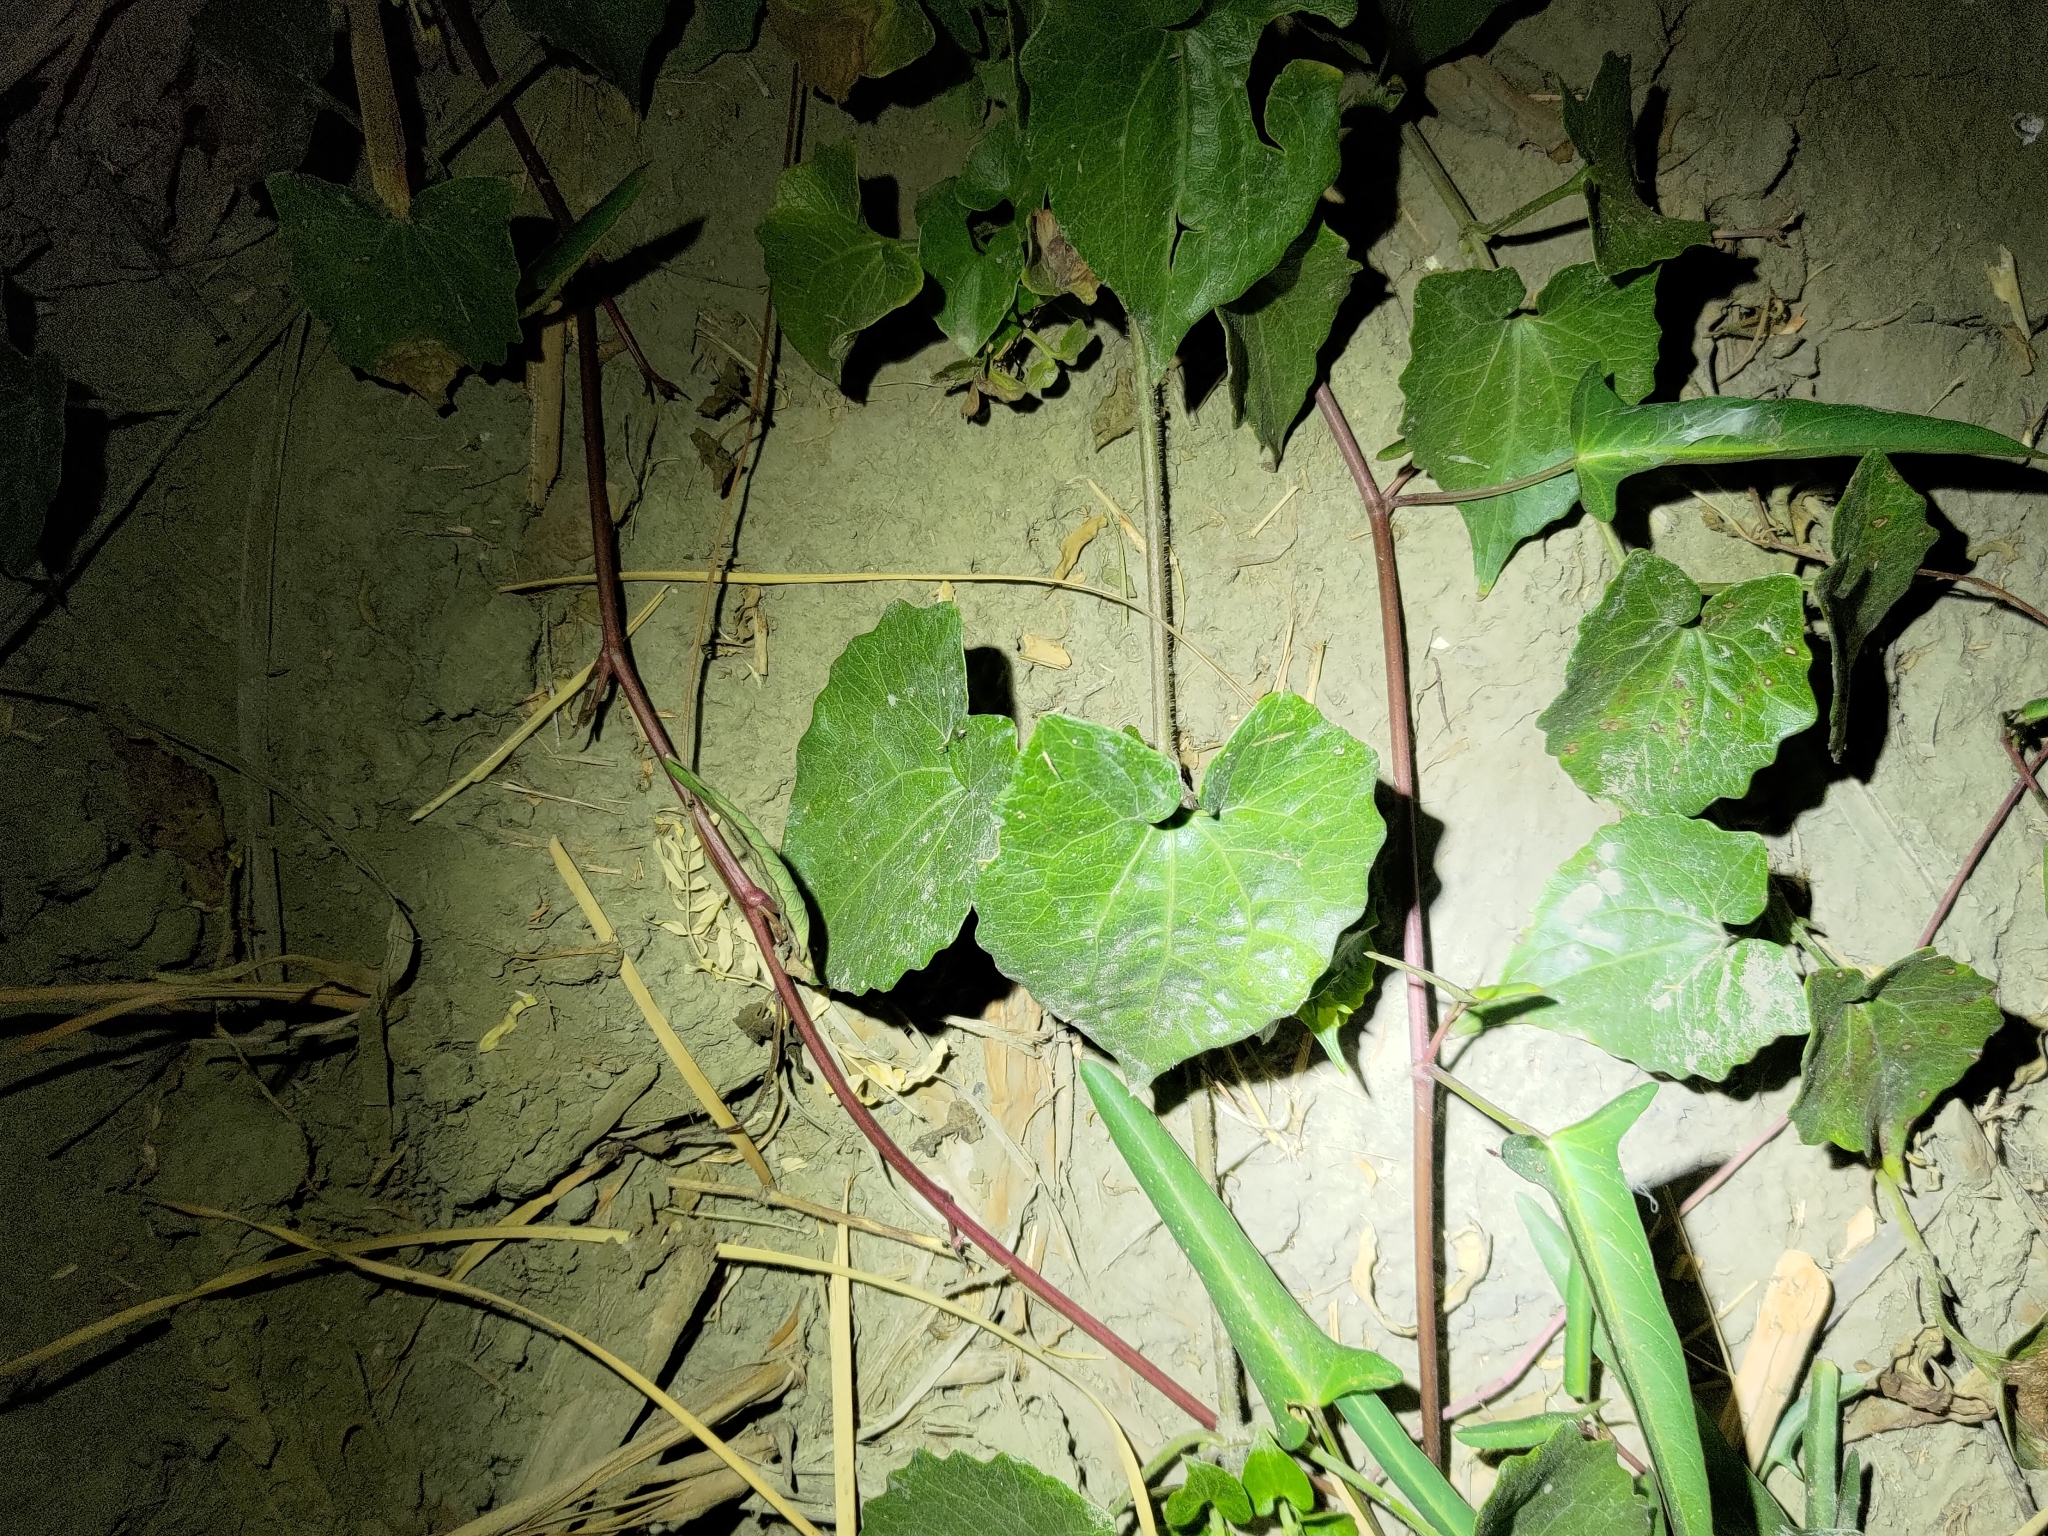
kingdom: Plantae
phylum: Tracheophyta
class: Magnoliopsida
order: Asterales
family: Asteraceae
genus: Mikania
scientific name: Mikania micrantha
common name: Mile-a-minute
